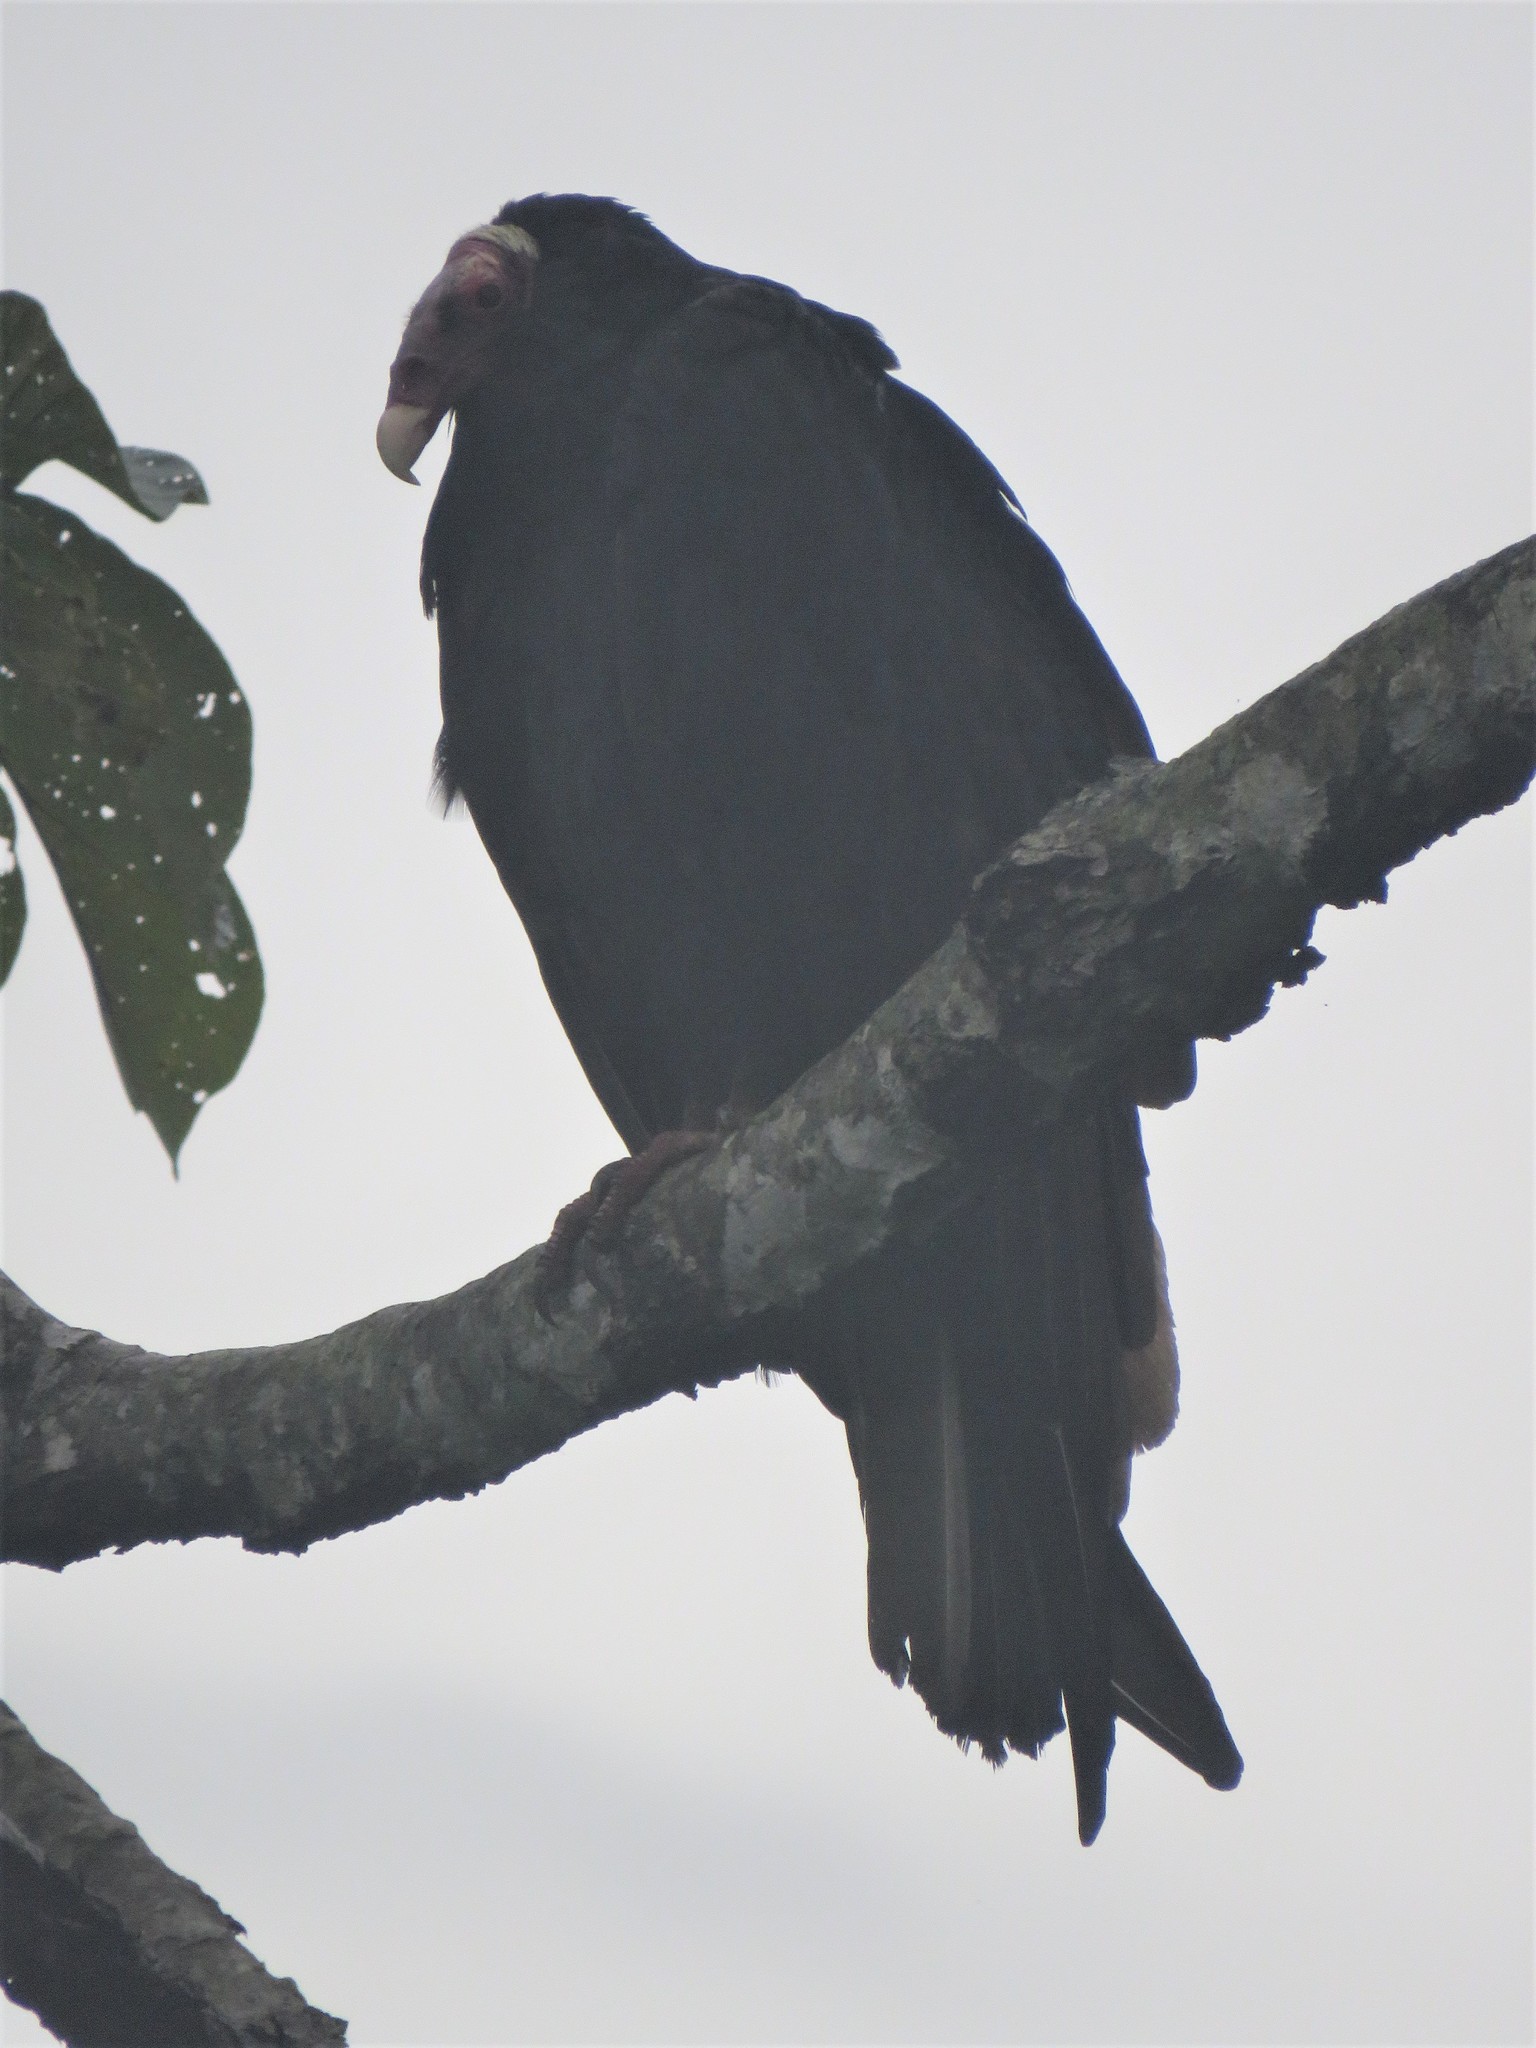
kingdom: Animalia
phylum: Chordata
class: Aves
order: Accipitriformes
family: Cathartidae
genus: Cathartes
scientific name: Cathartes aura
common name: Turkey vulture
